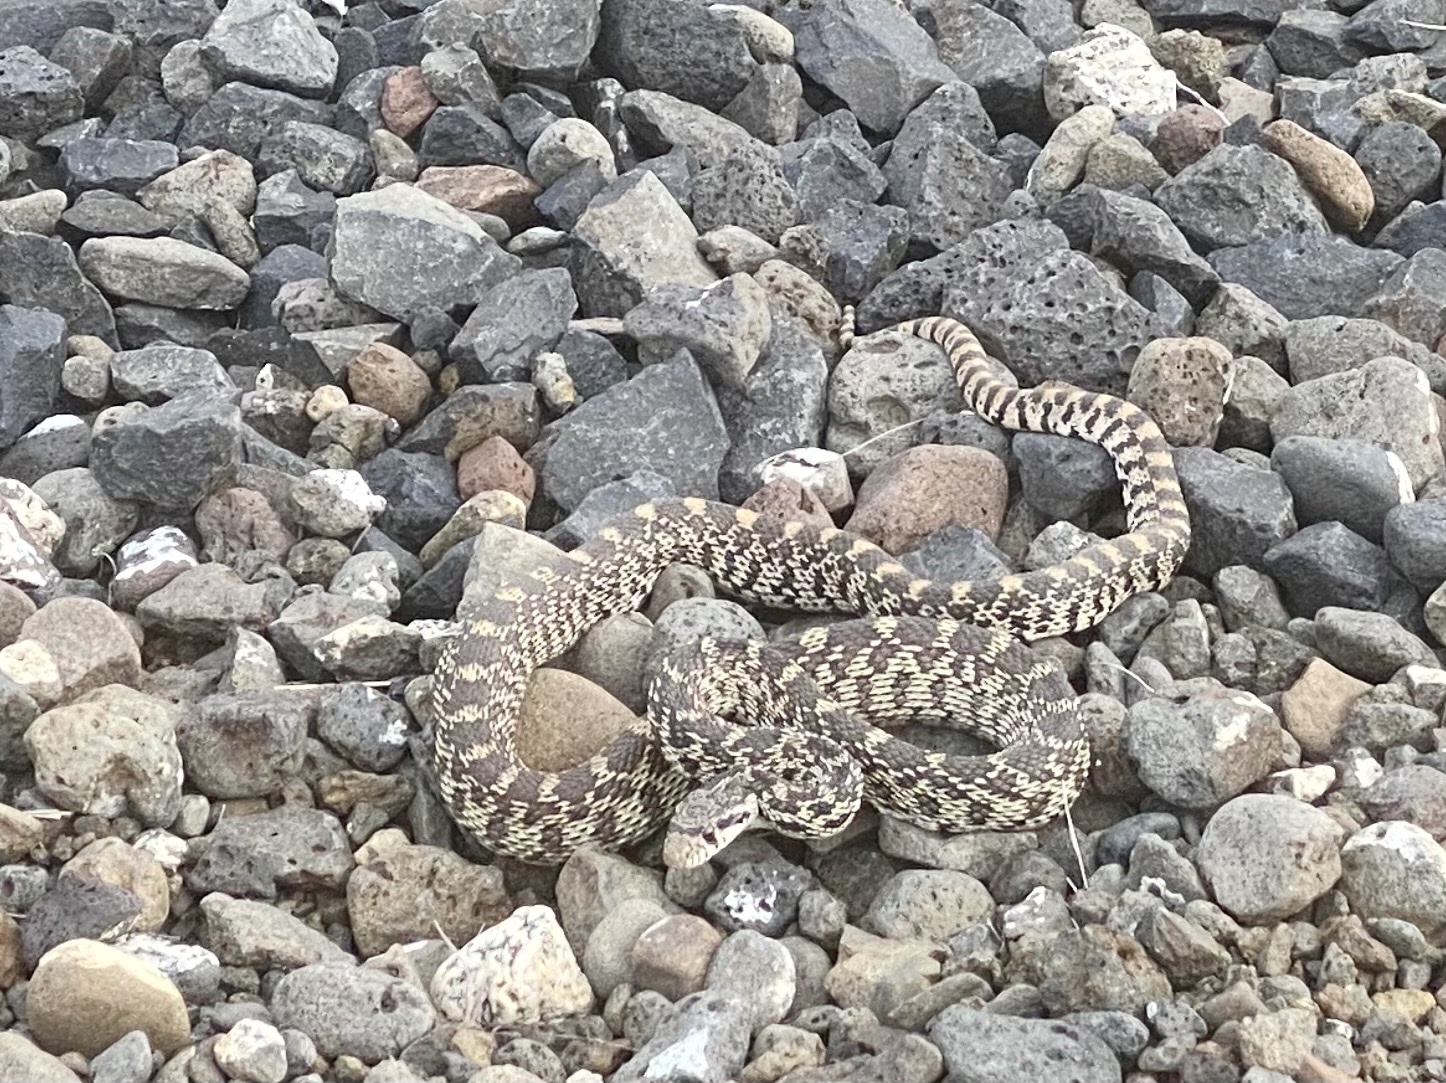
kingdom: Animalia
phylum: Chordata
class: Squamata
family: Colubridae
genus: Pituophis
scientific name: Pituophis catenifer
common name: Gopher snake
